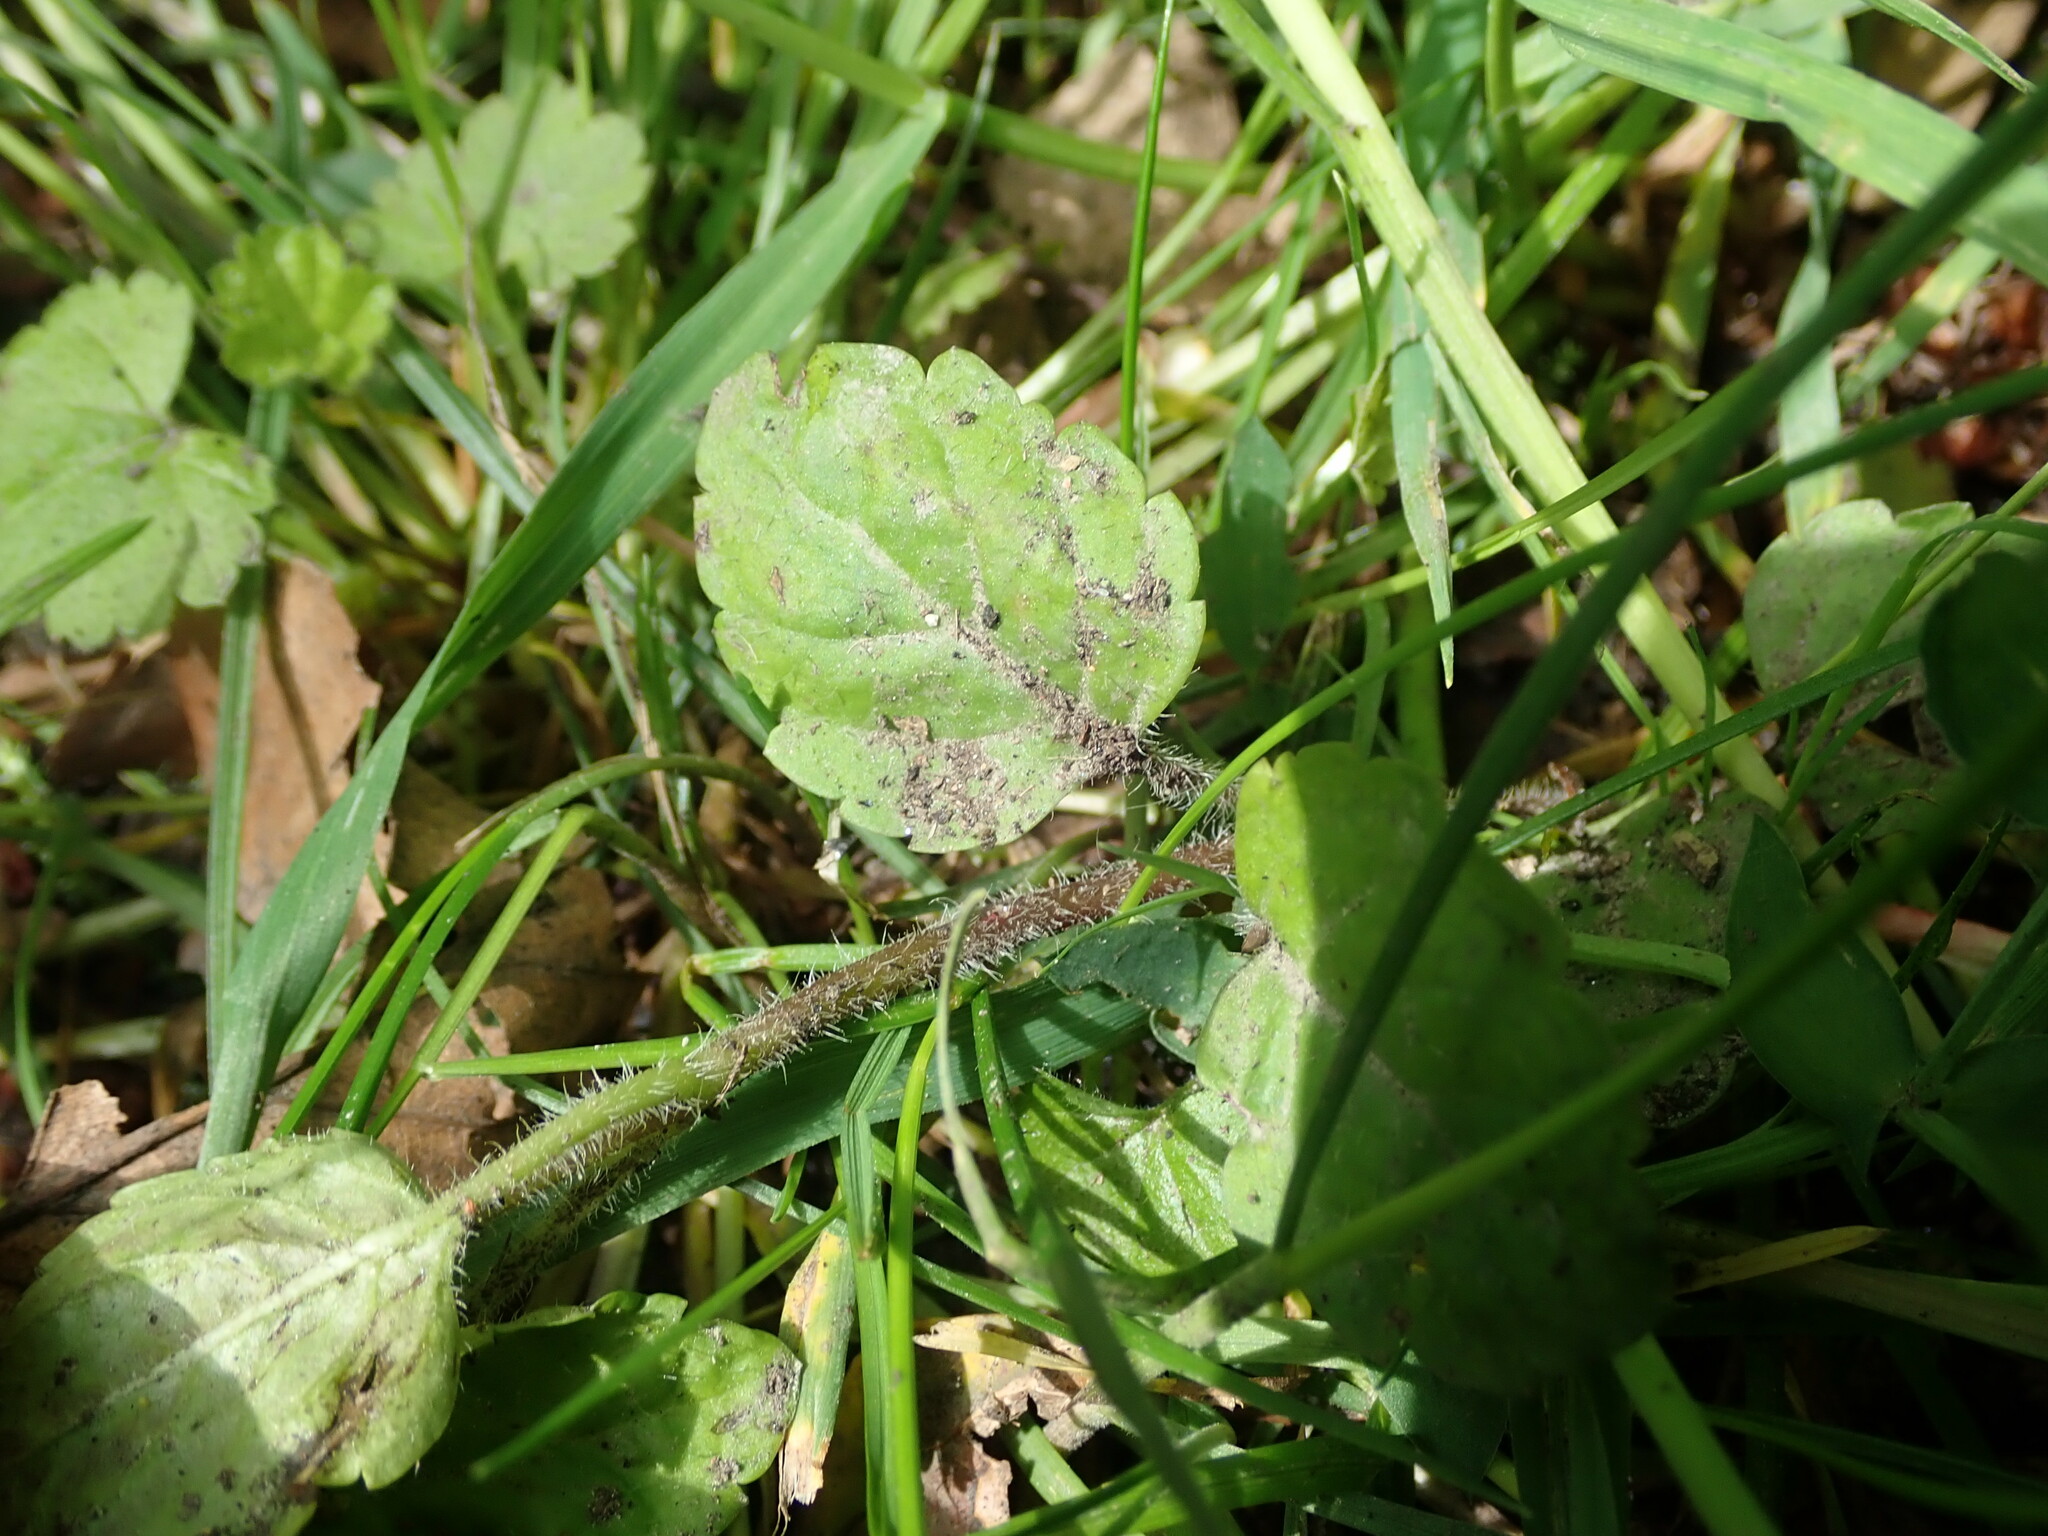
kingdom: Plantae
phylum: Tracheophyta
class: Magnoliopsida
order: Lamiales
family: Plantaginaceae
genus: Veronica
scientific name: Veronica montana
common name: Wood speedwell
